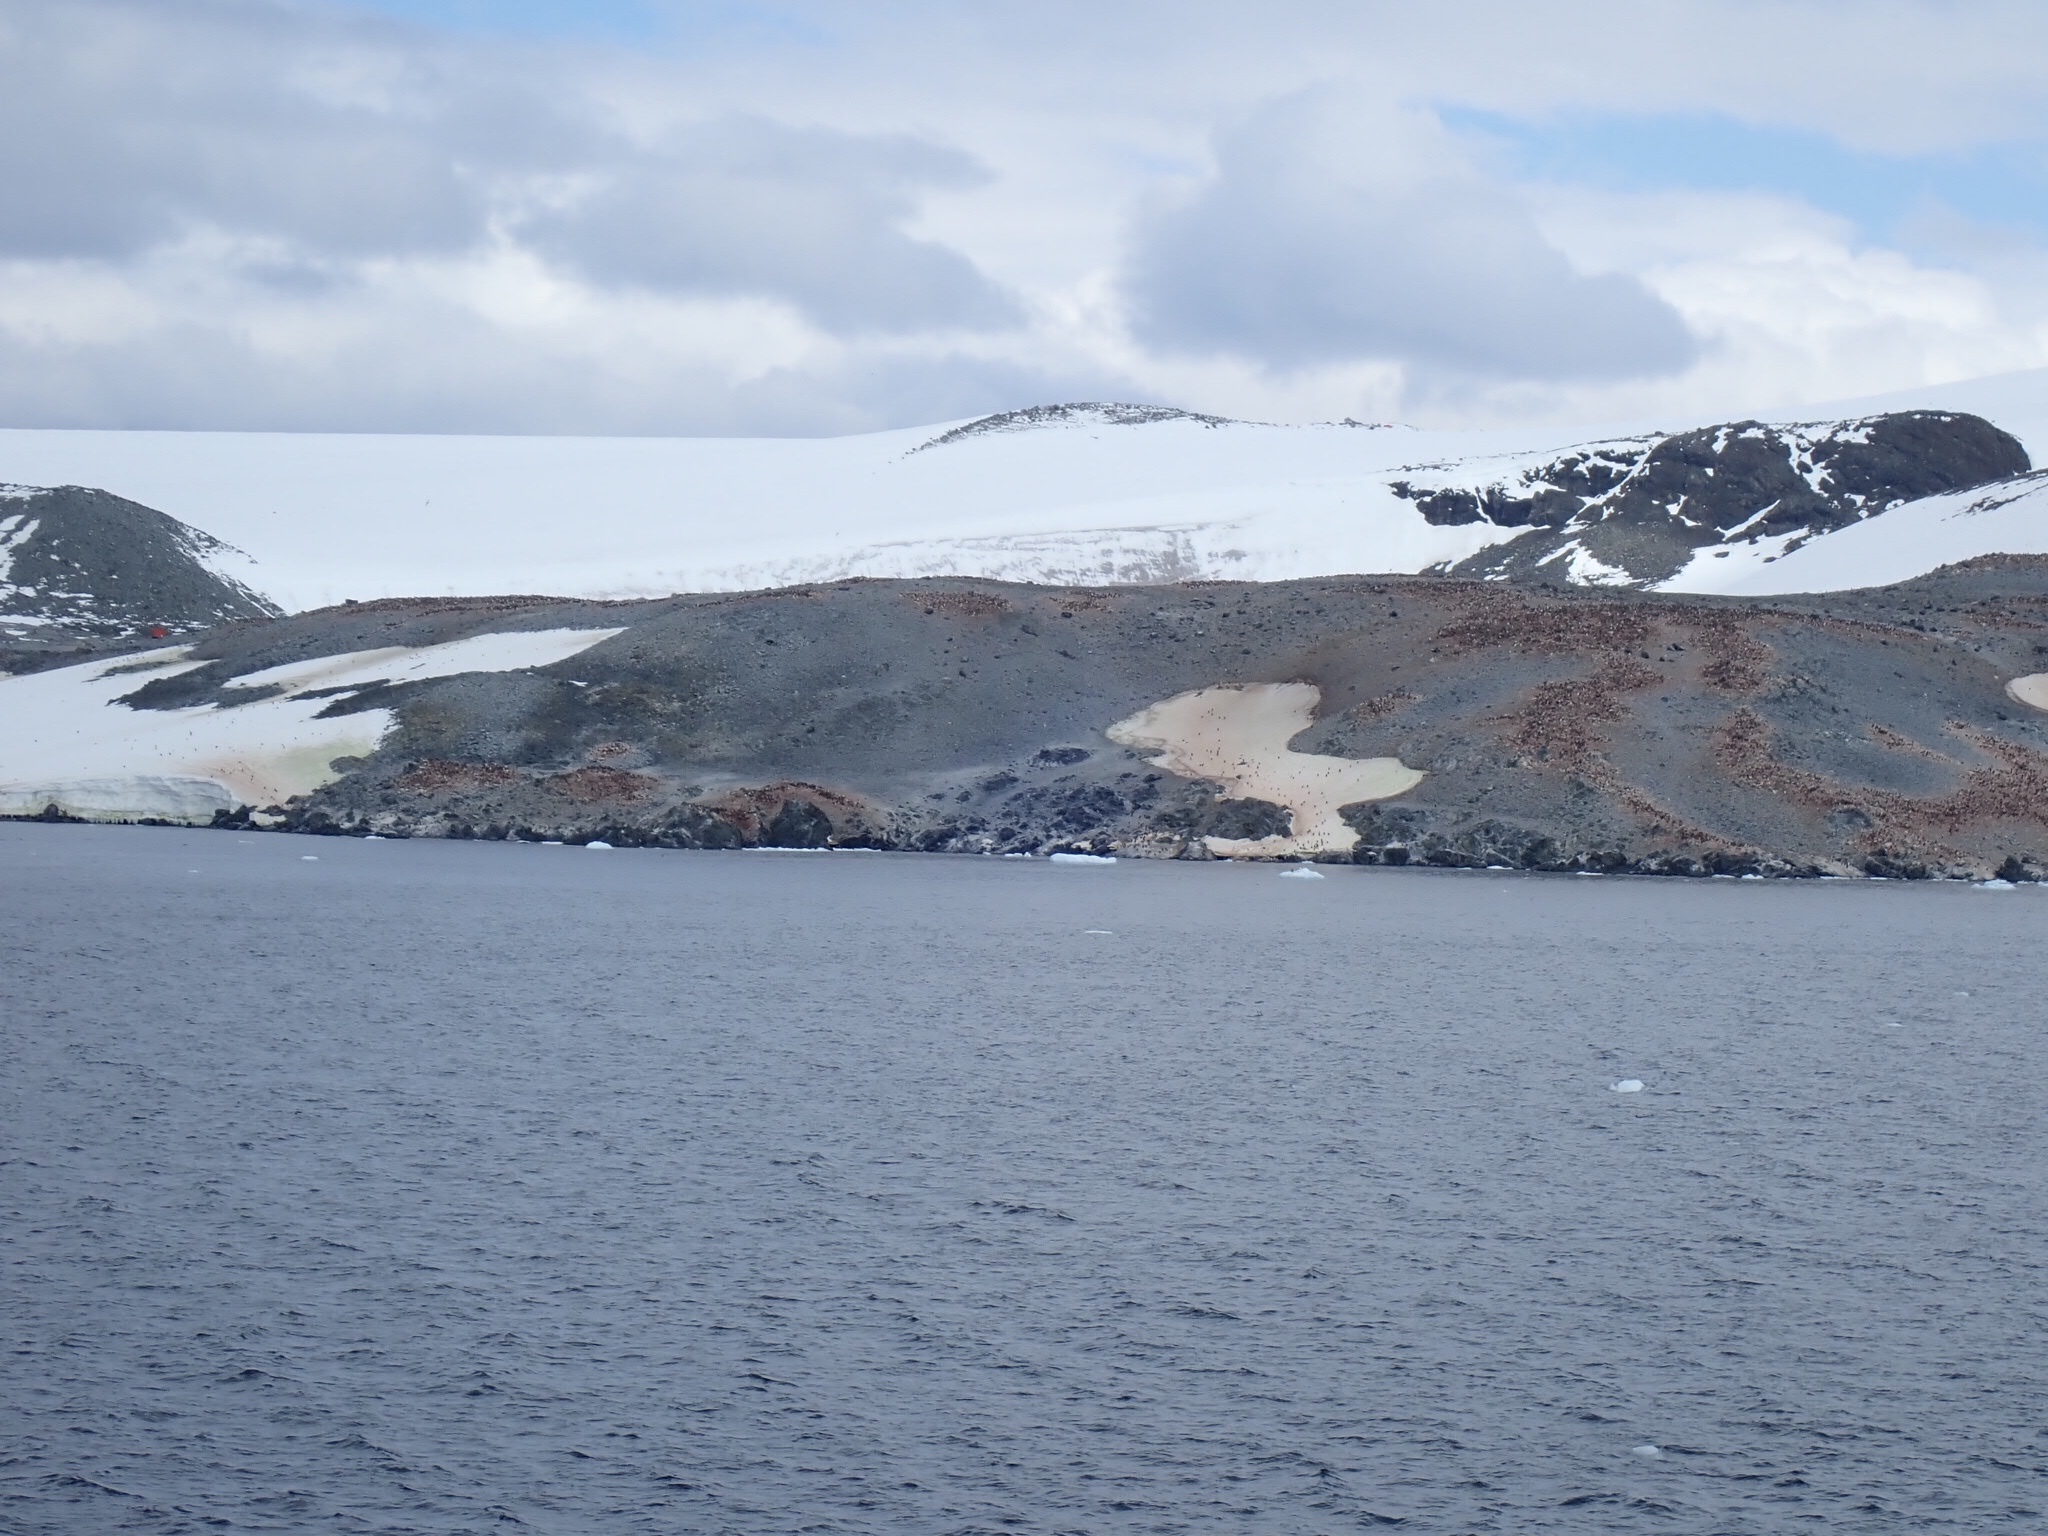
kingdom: Animalia
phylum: Chordata
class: Aves
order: Sphenisciformes
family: Spheniscidae
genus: Pygoscelis
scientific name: Pygoscelis adeliae
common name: Adelie penguin
